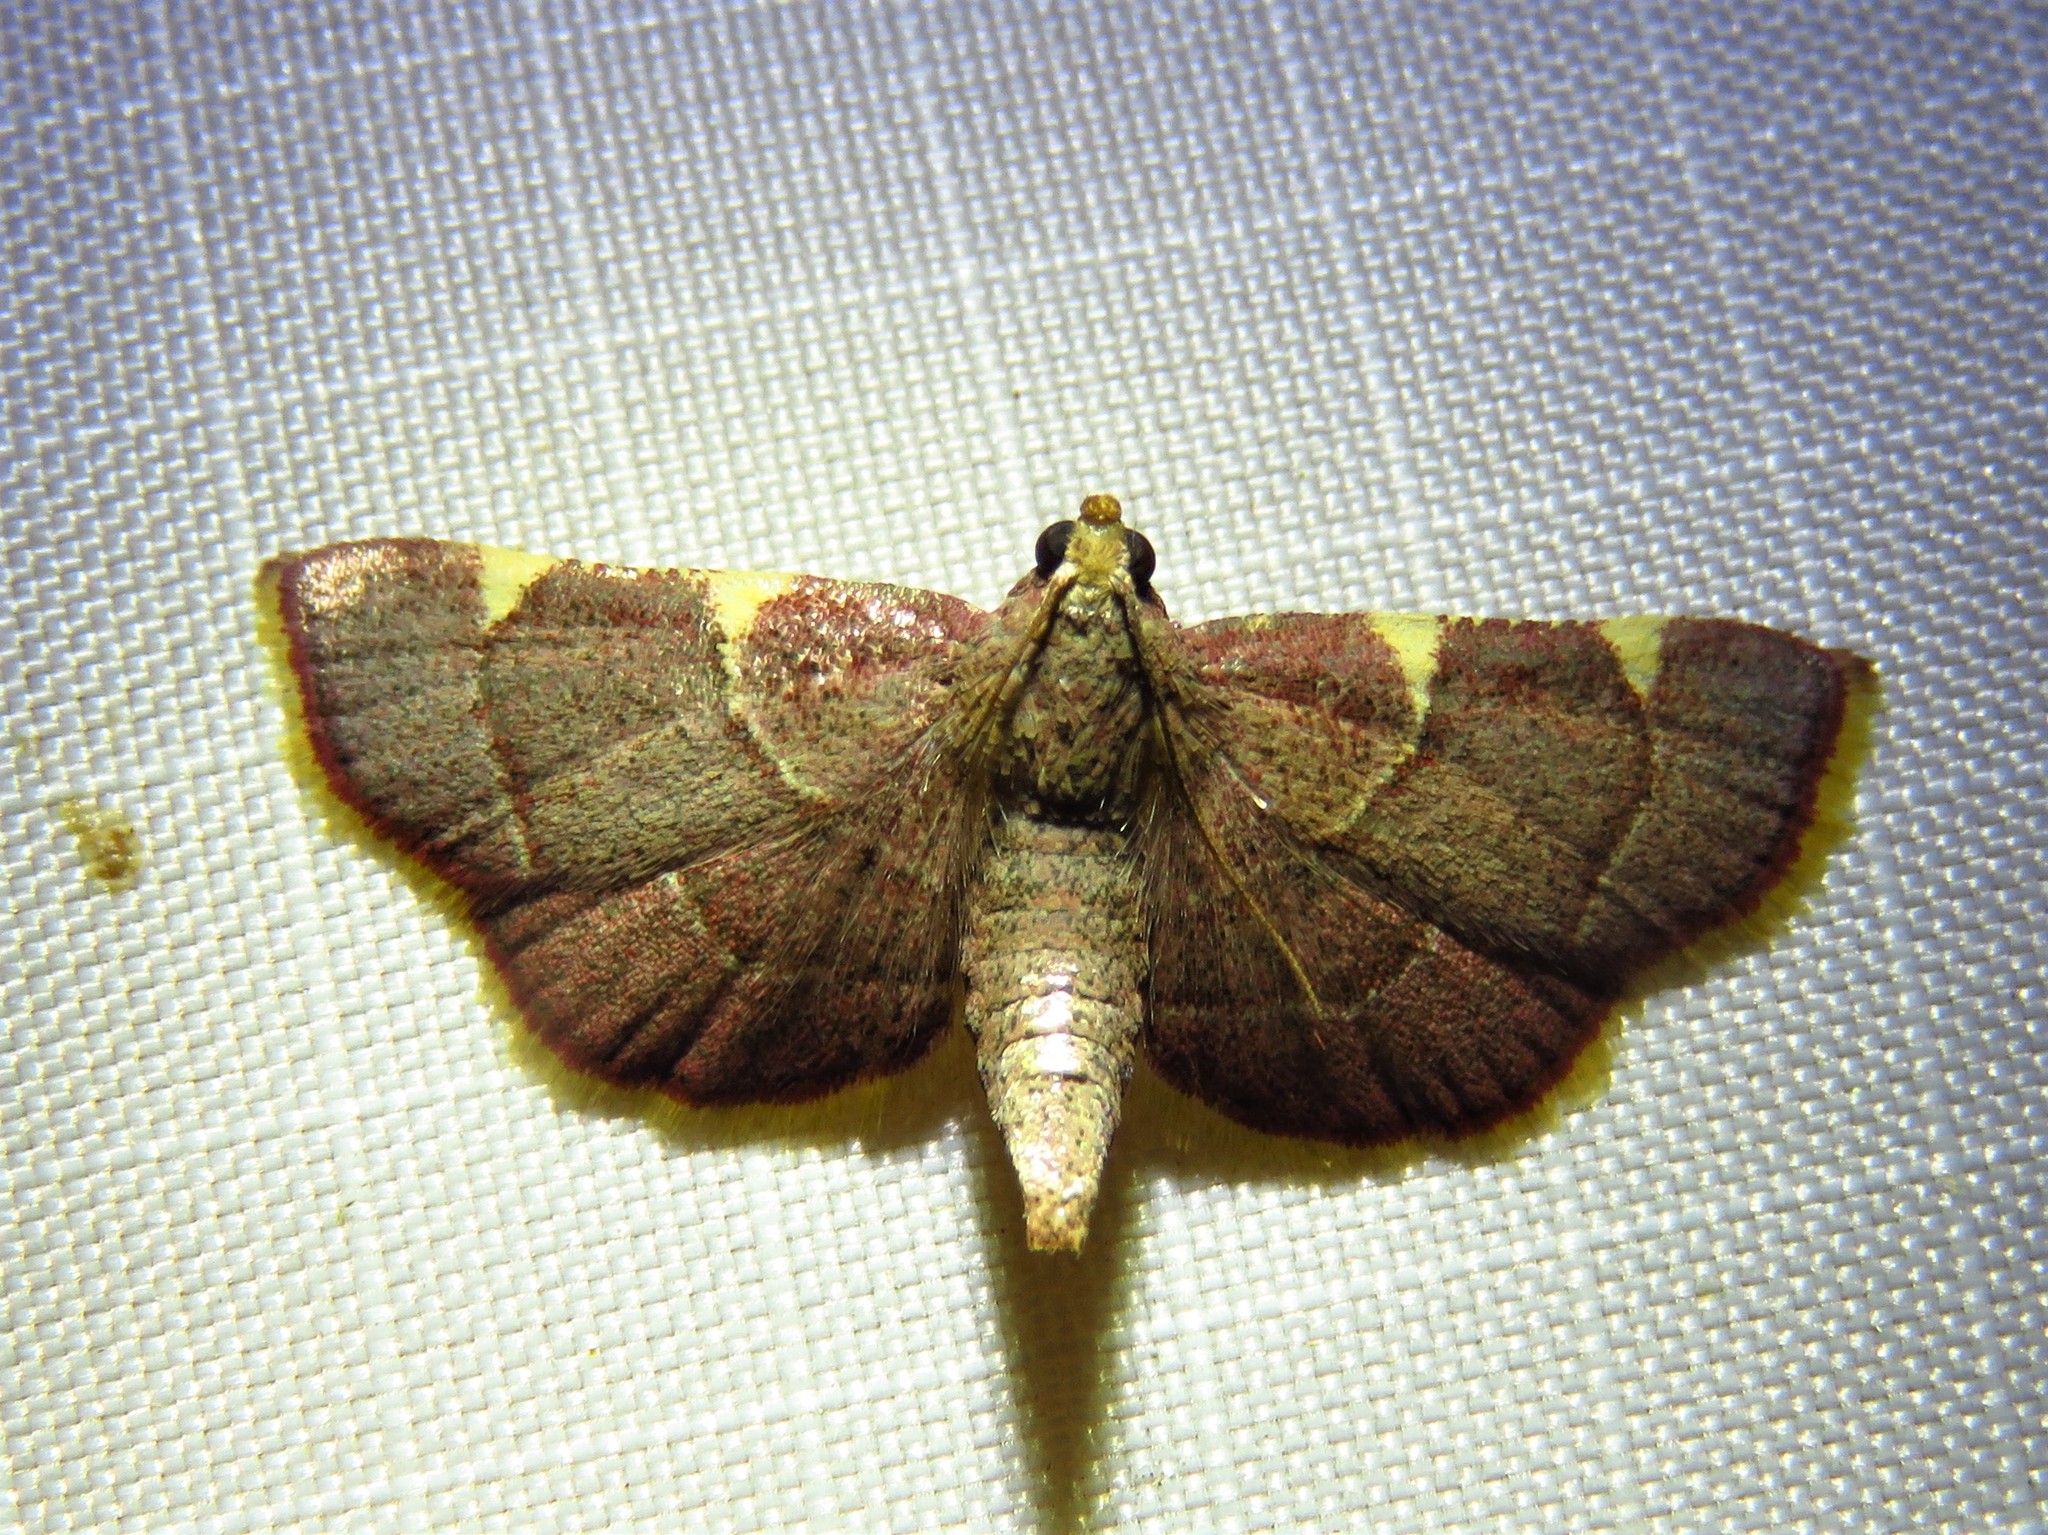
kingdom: Animalia
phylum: Arthropoda
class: Insecta
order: Lepidoptera
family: Pyralidae
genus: Hypsopygia
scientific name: Hypsopygia olinalis
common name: Yellow-fringed dolichomia moth
